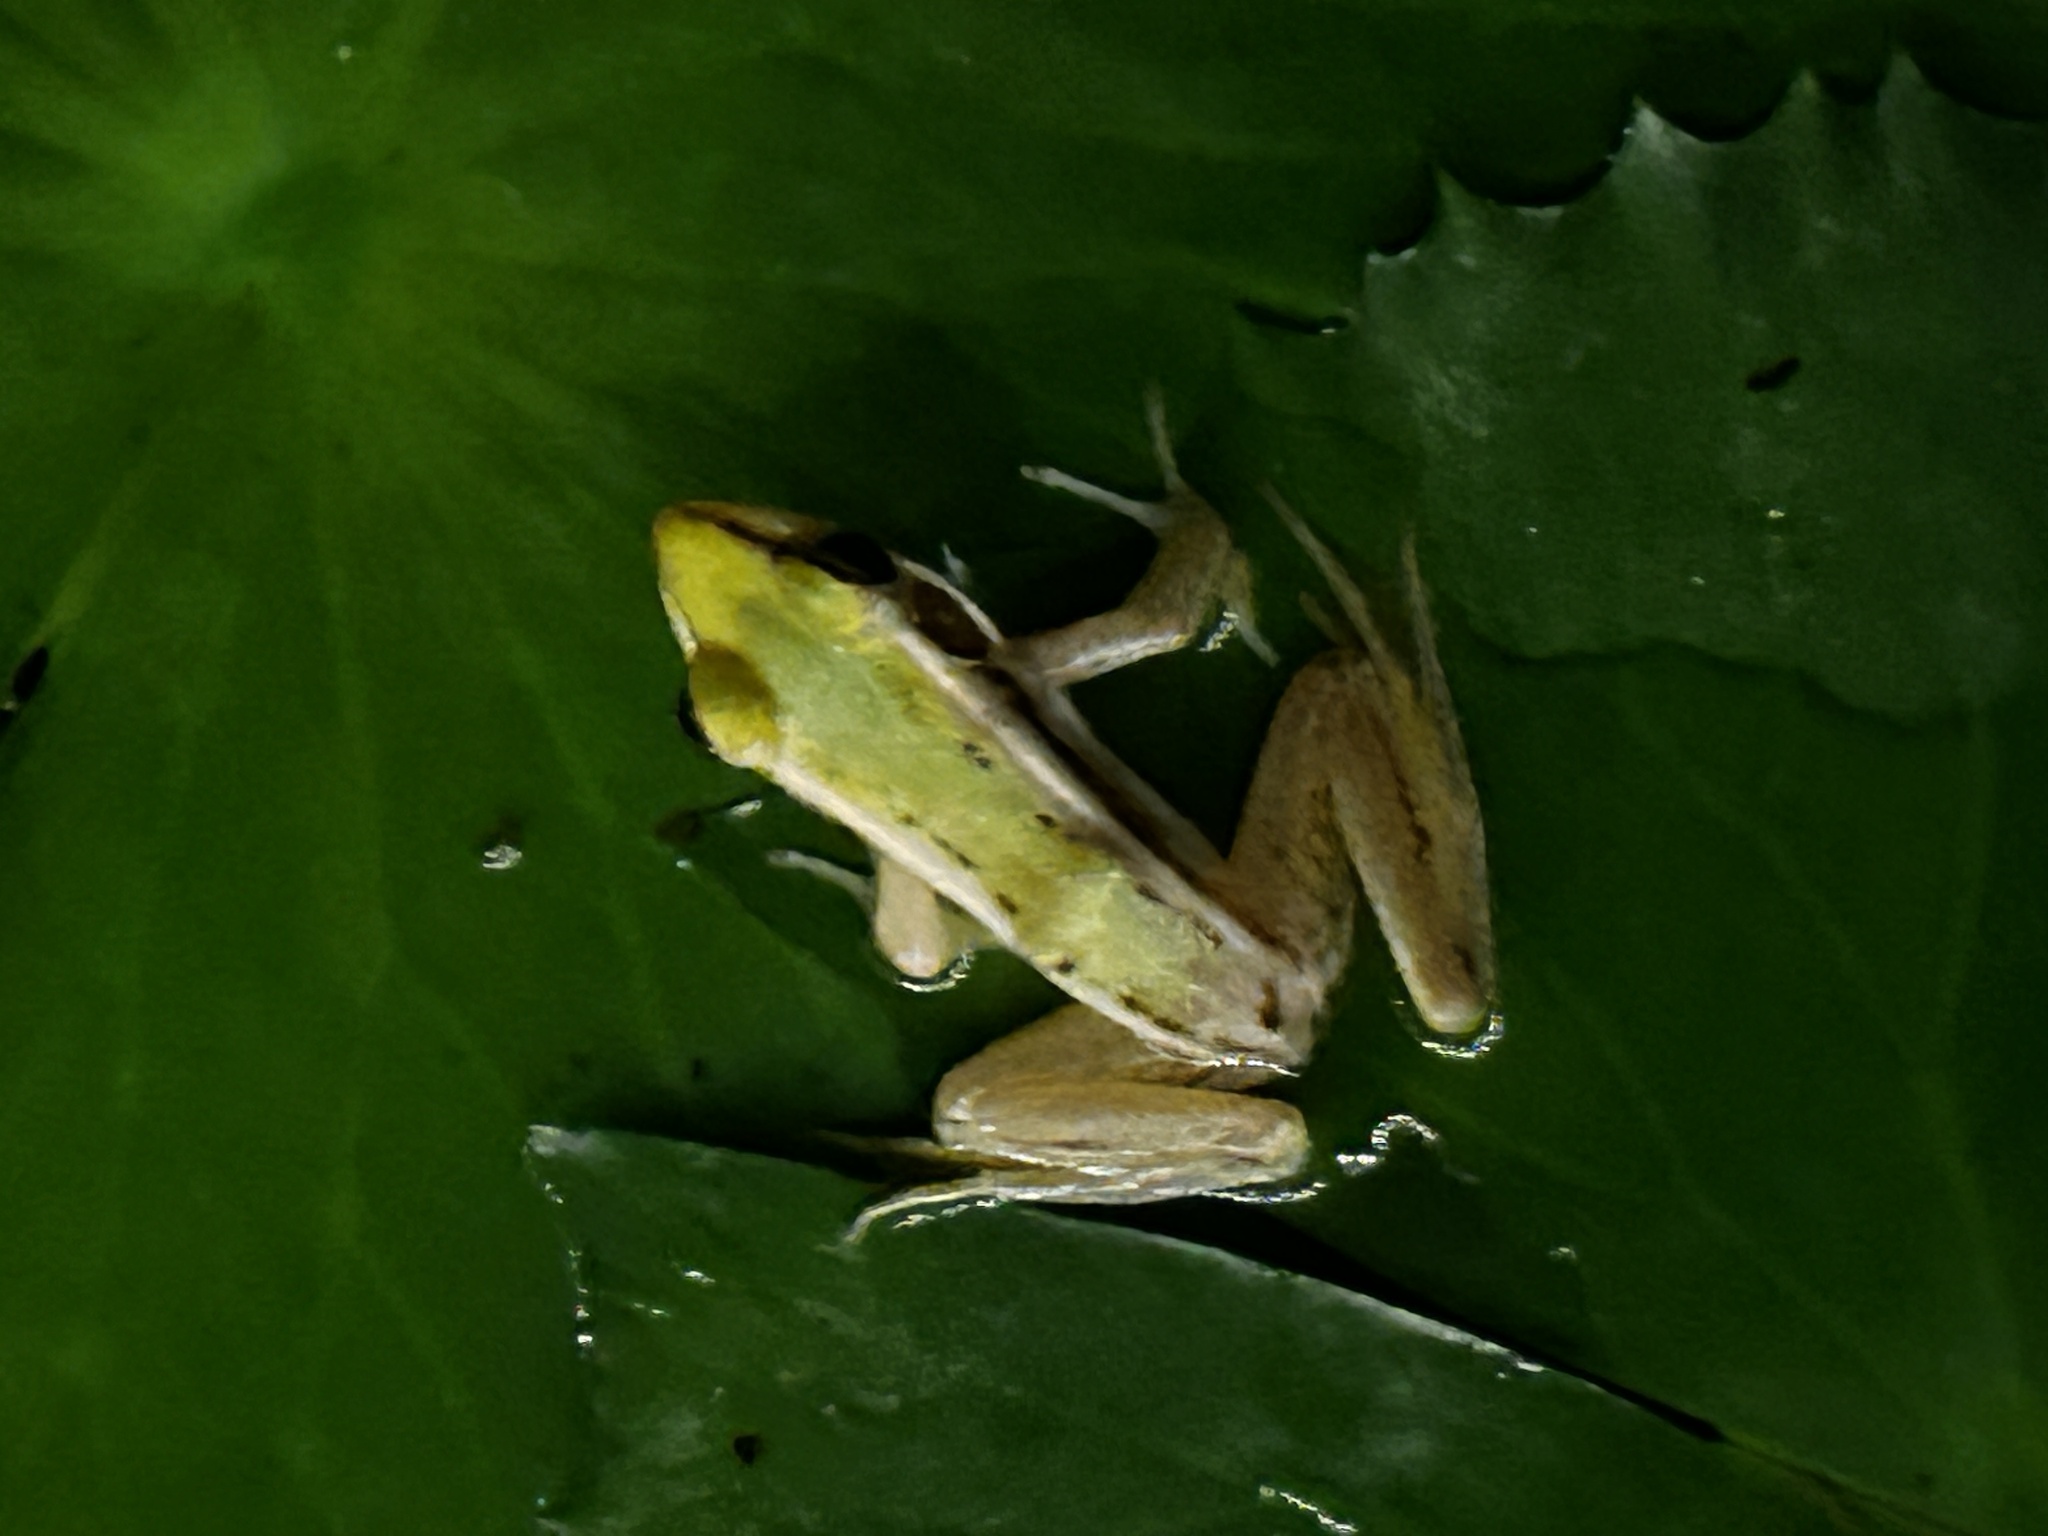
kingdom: Animalia
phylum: Chordata
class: Amphibia
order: Anura
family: Ranidae
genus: Hylarana
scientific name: Hylarana erythraea
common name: Common green frog/green paddy frog/leaf frog
